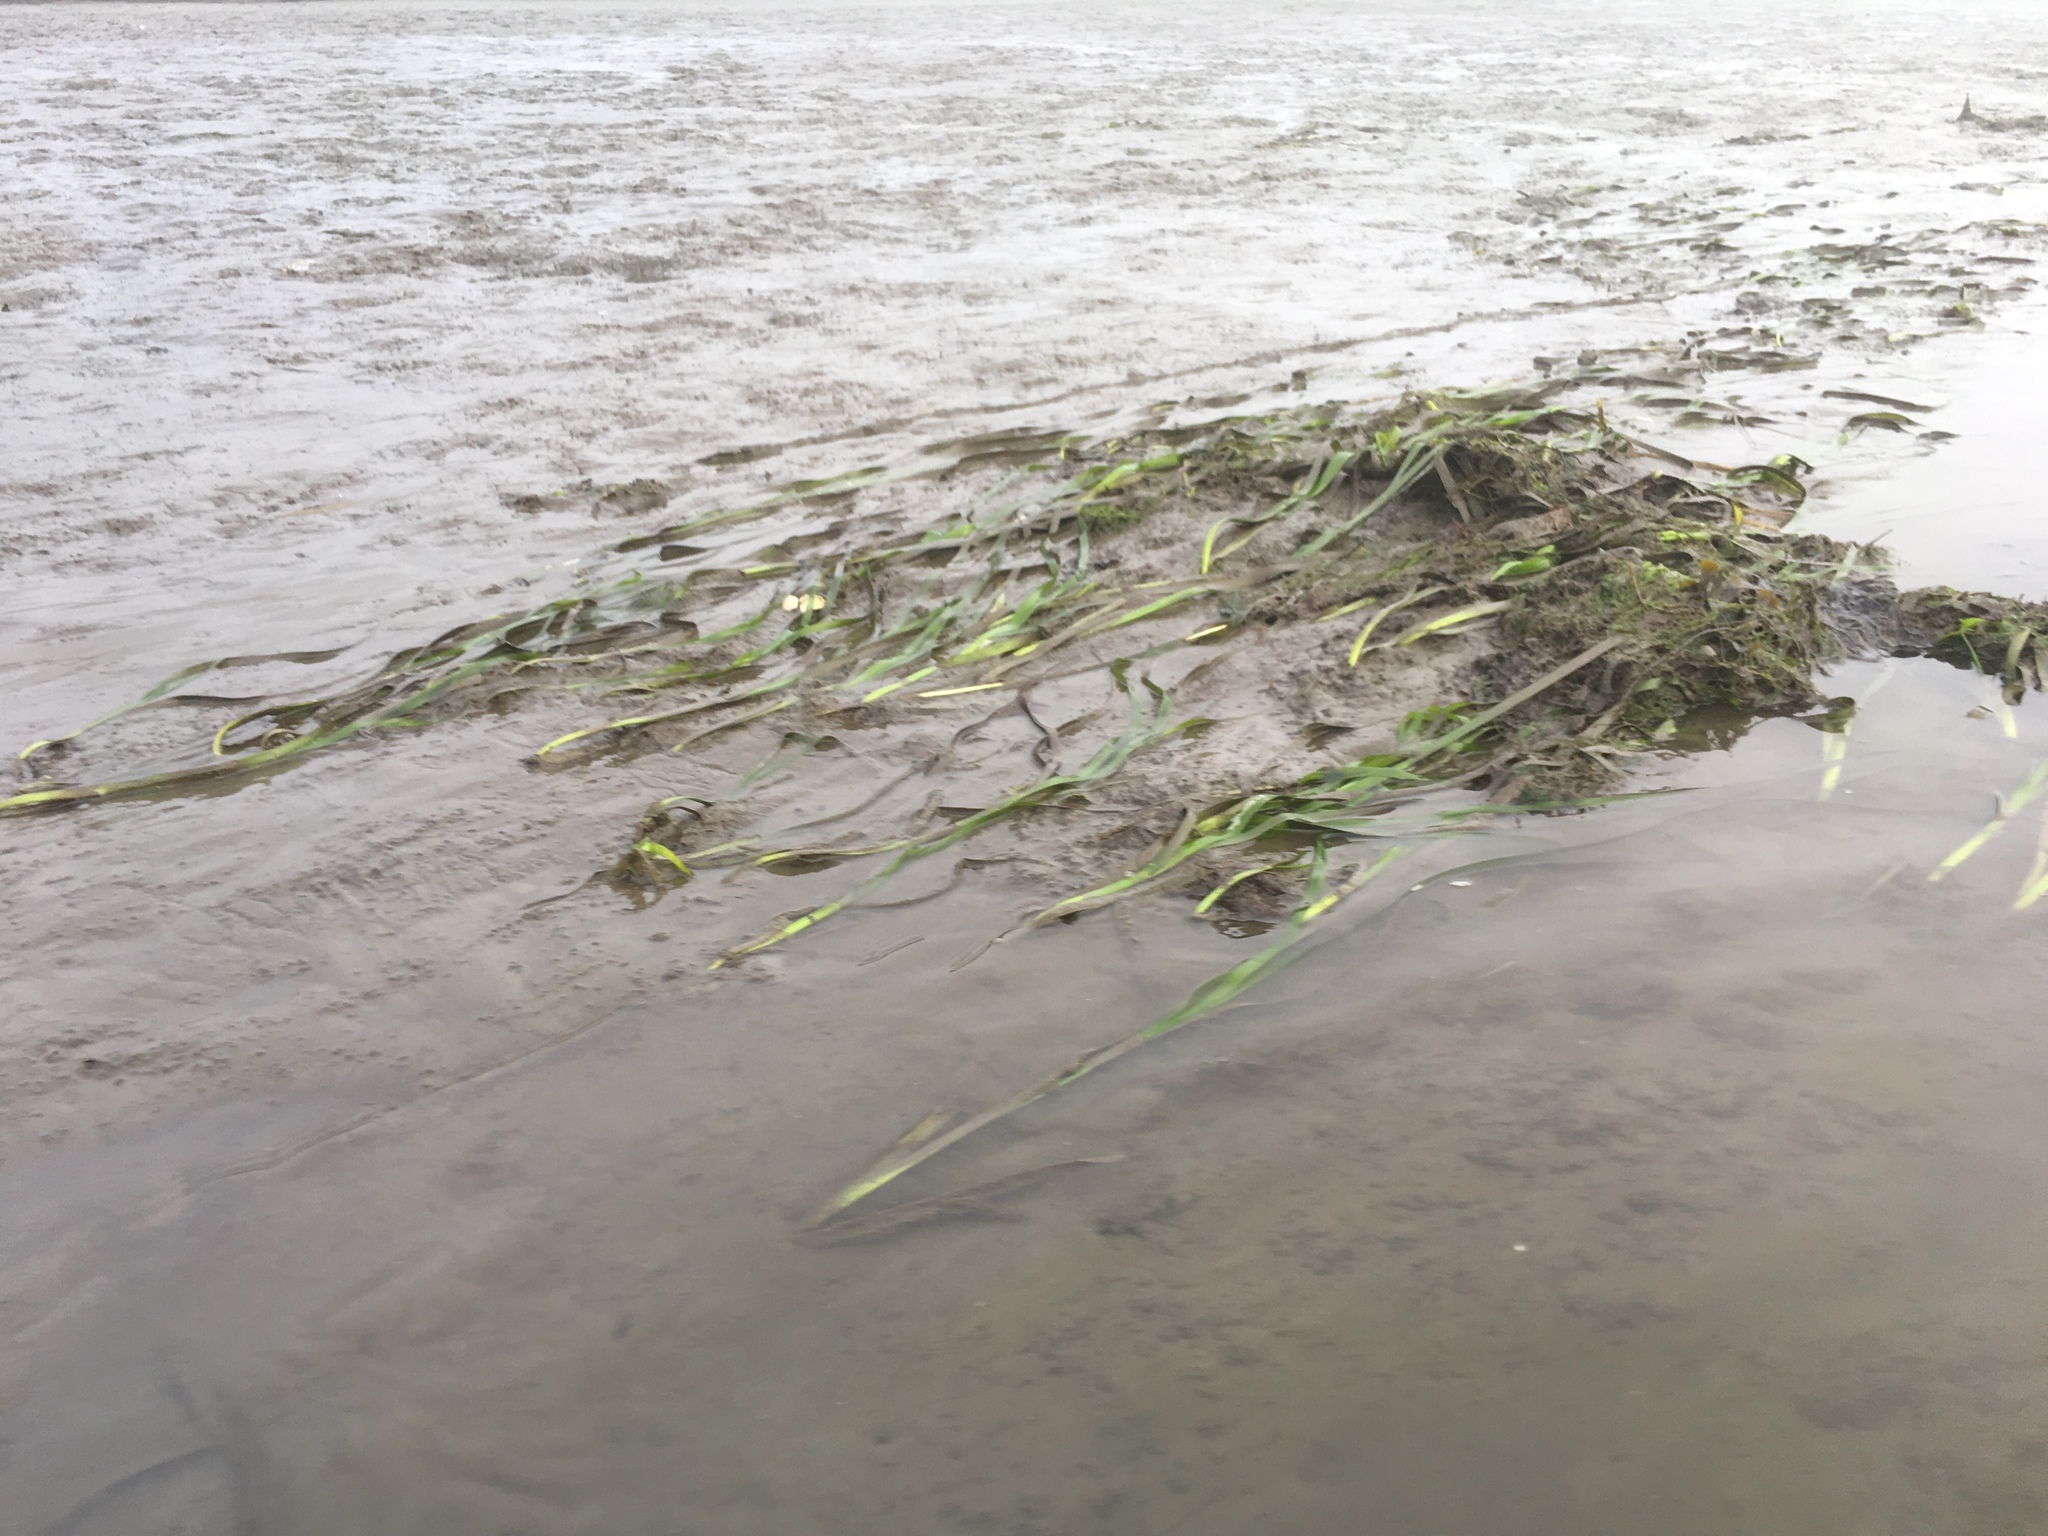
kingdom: Plantae
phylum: Tracheophyta
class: Liliopsida
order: Alismatales
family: Zosteraceae
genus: Zostera
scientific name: Zostera marina
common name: Eelgrass
